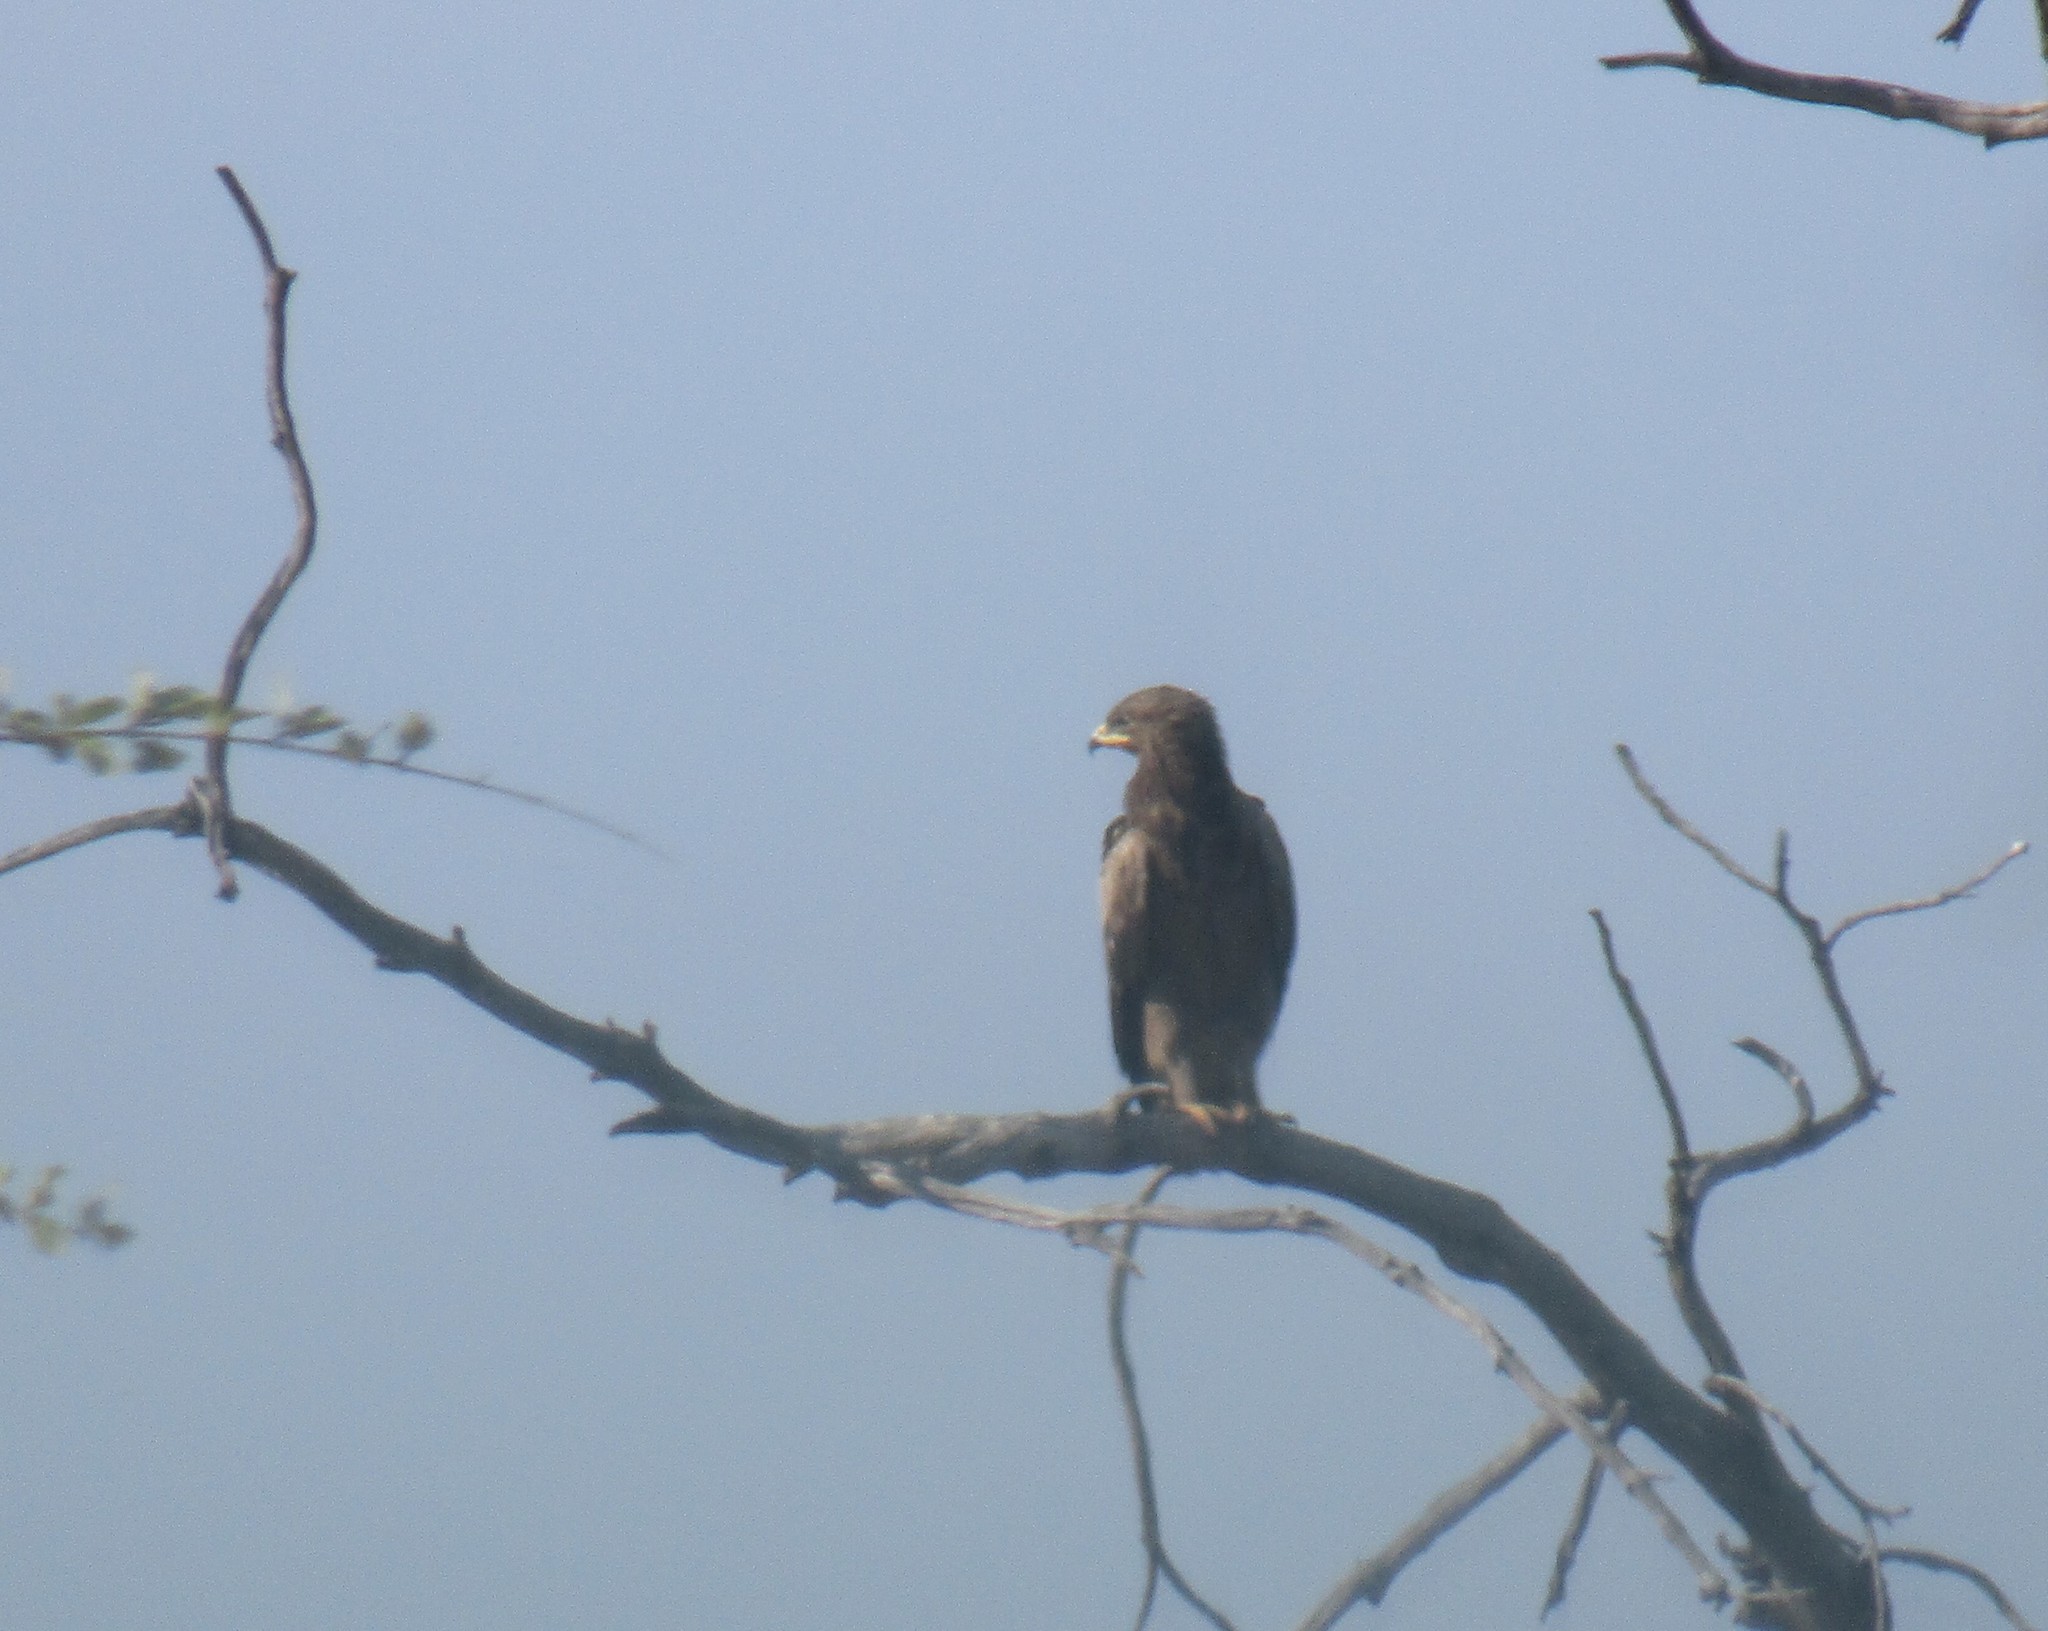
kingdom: Animalia
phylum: Chordata
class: Aves
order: Accipitriformes
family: Accipitridae
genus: Hieraaetus
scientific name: Hieraaetus wahlbergi
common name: Wahlberg's eagle
